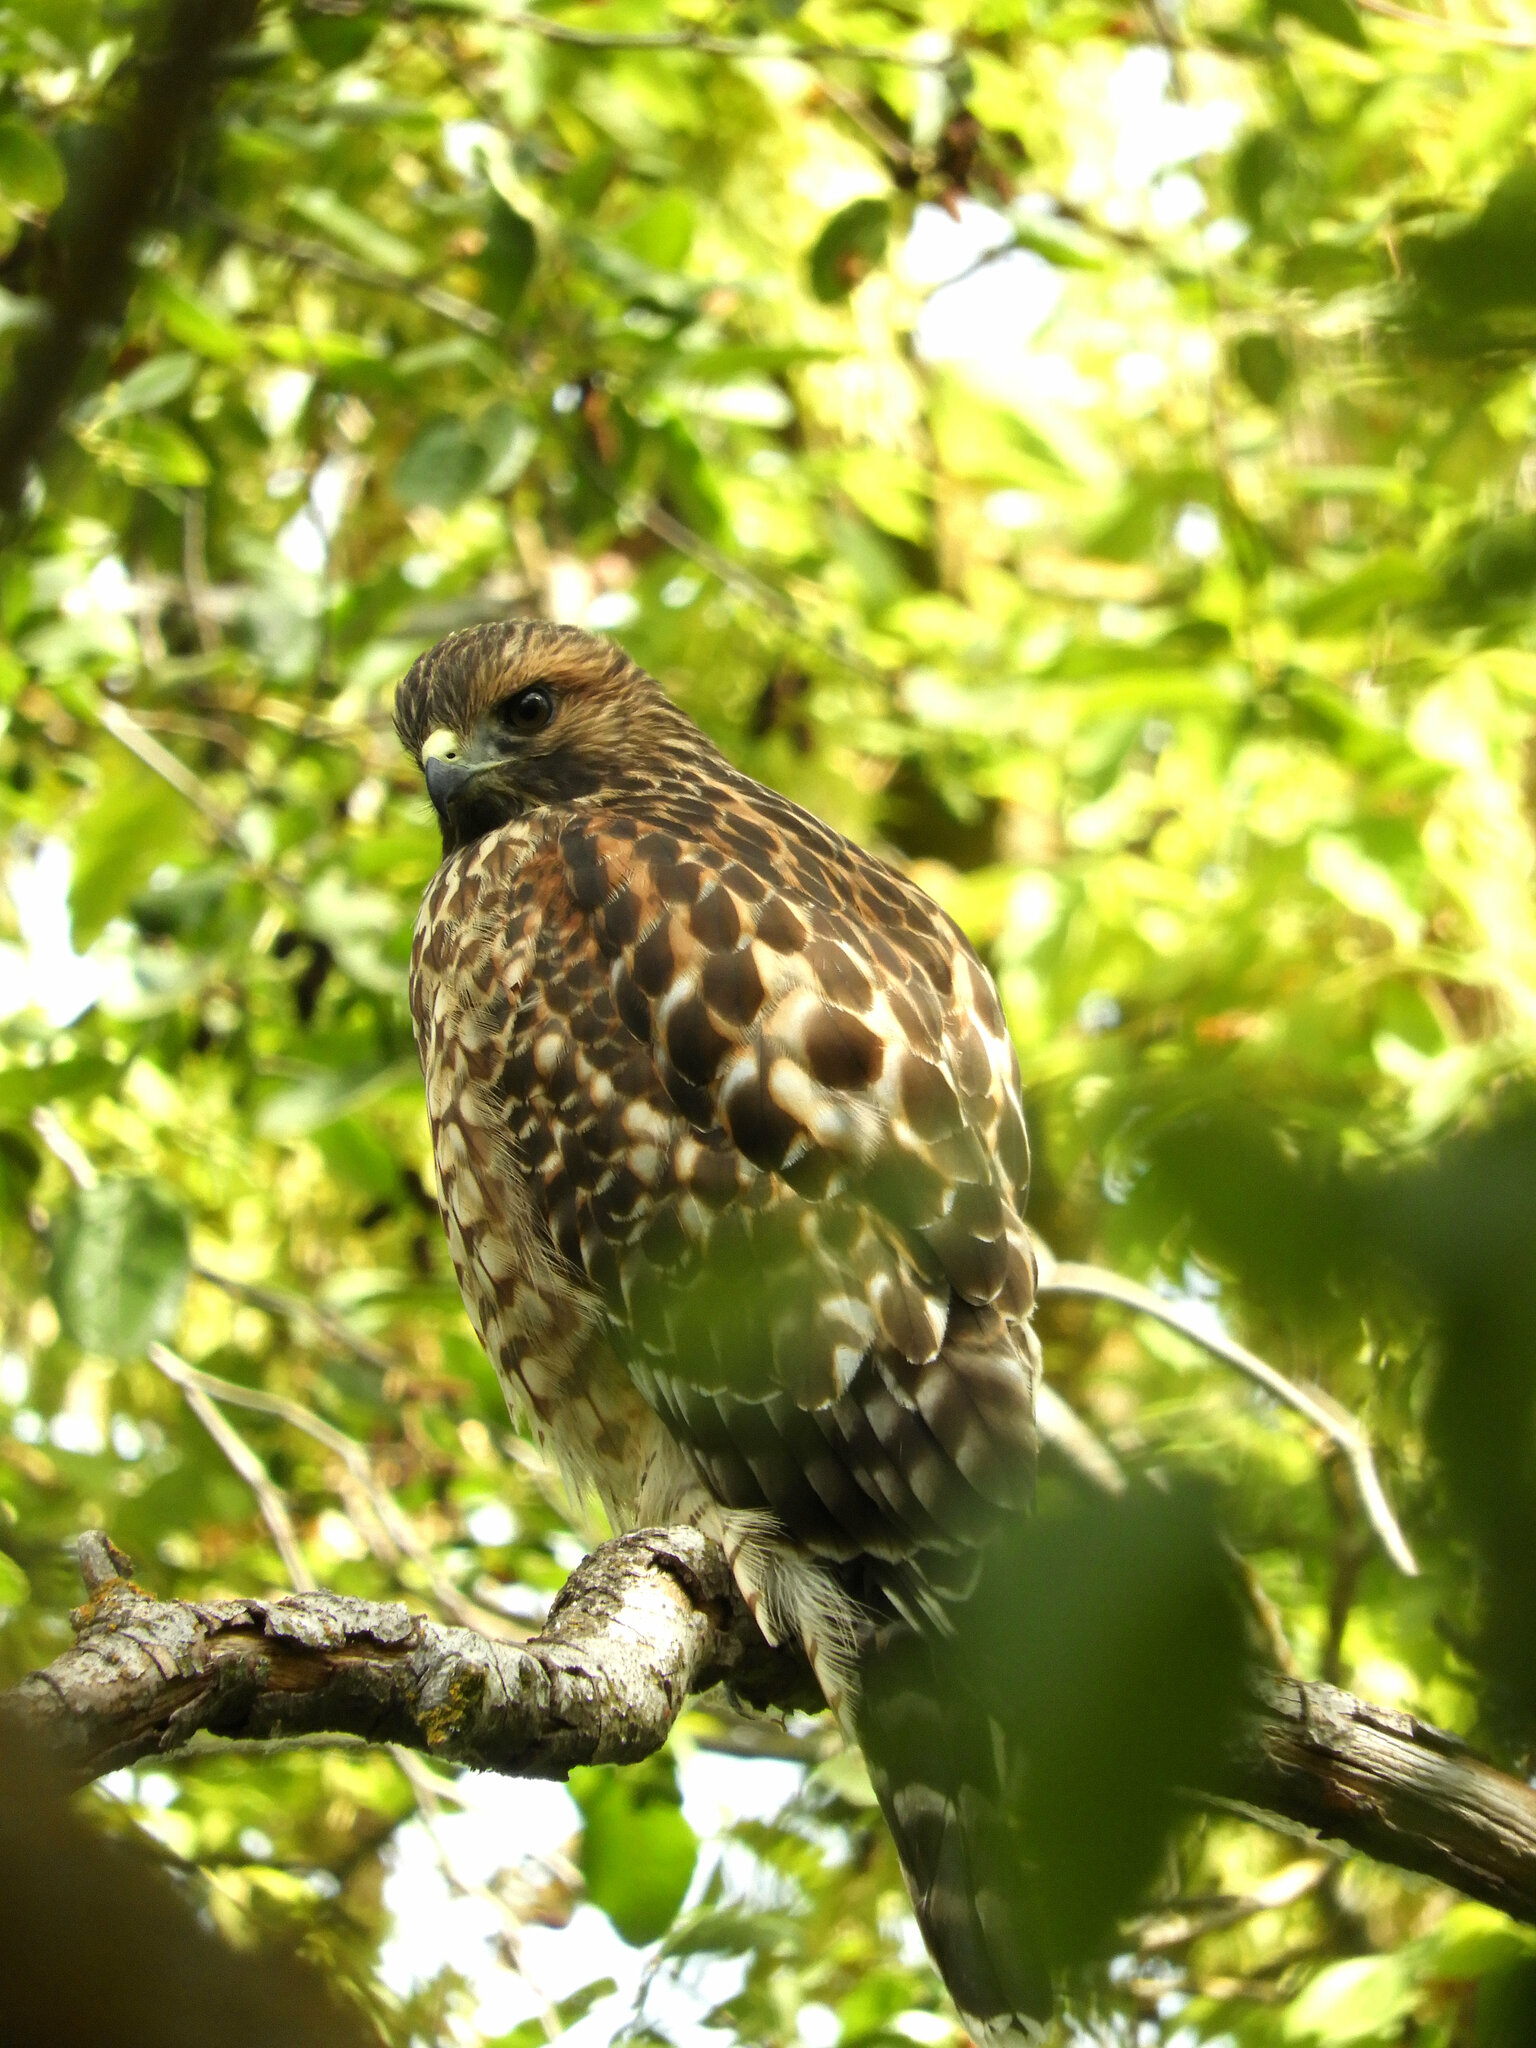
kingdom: Animalia
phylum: Chordata
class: Aves
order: Accipitriformes
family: Accipitridae
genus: Buteo
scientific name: Buteo lineatus
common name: Red-shouldered hawk
